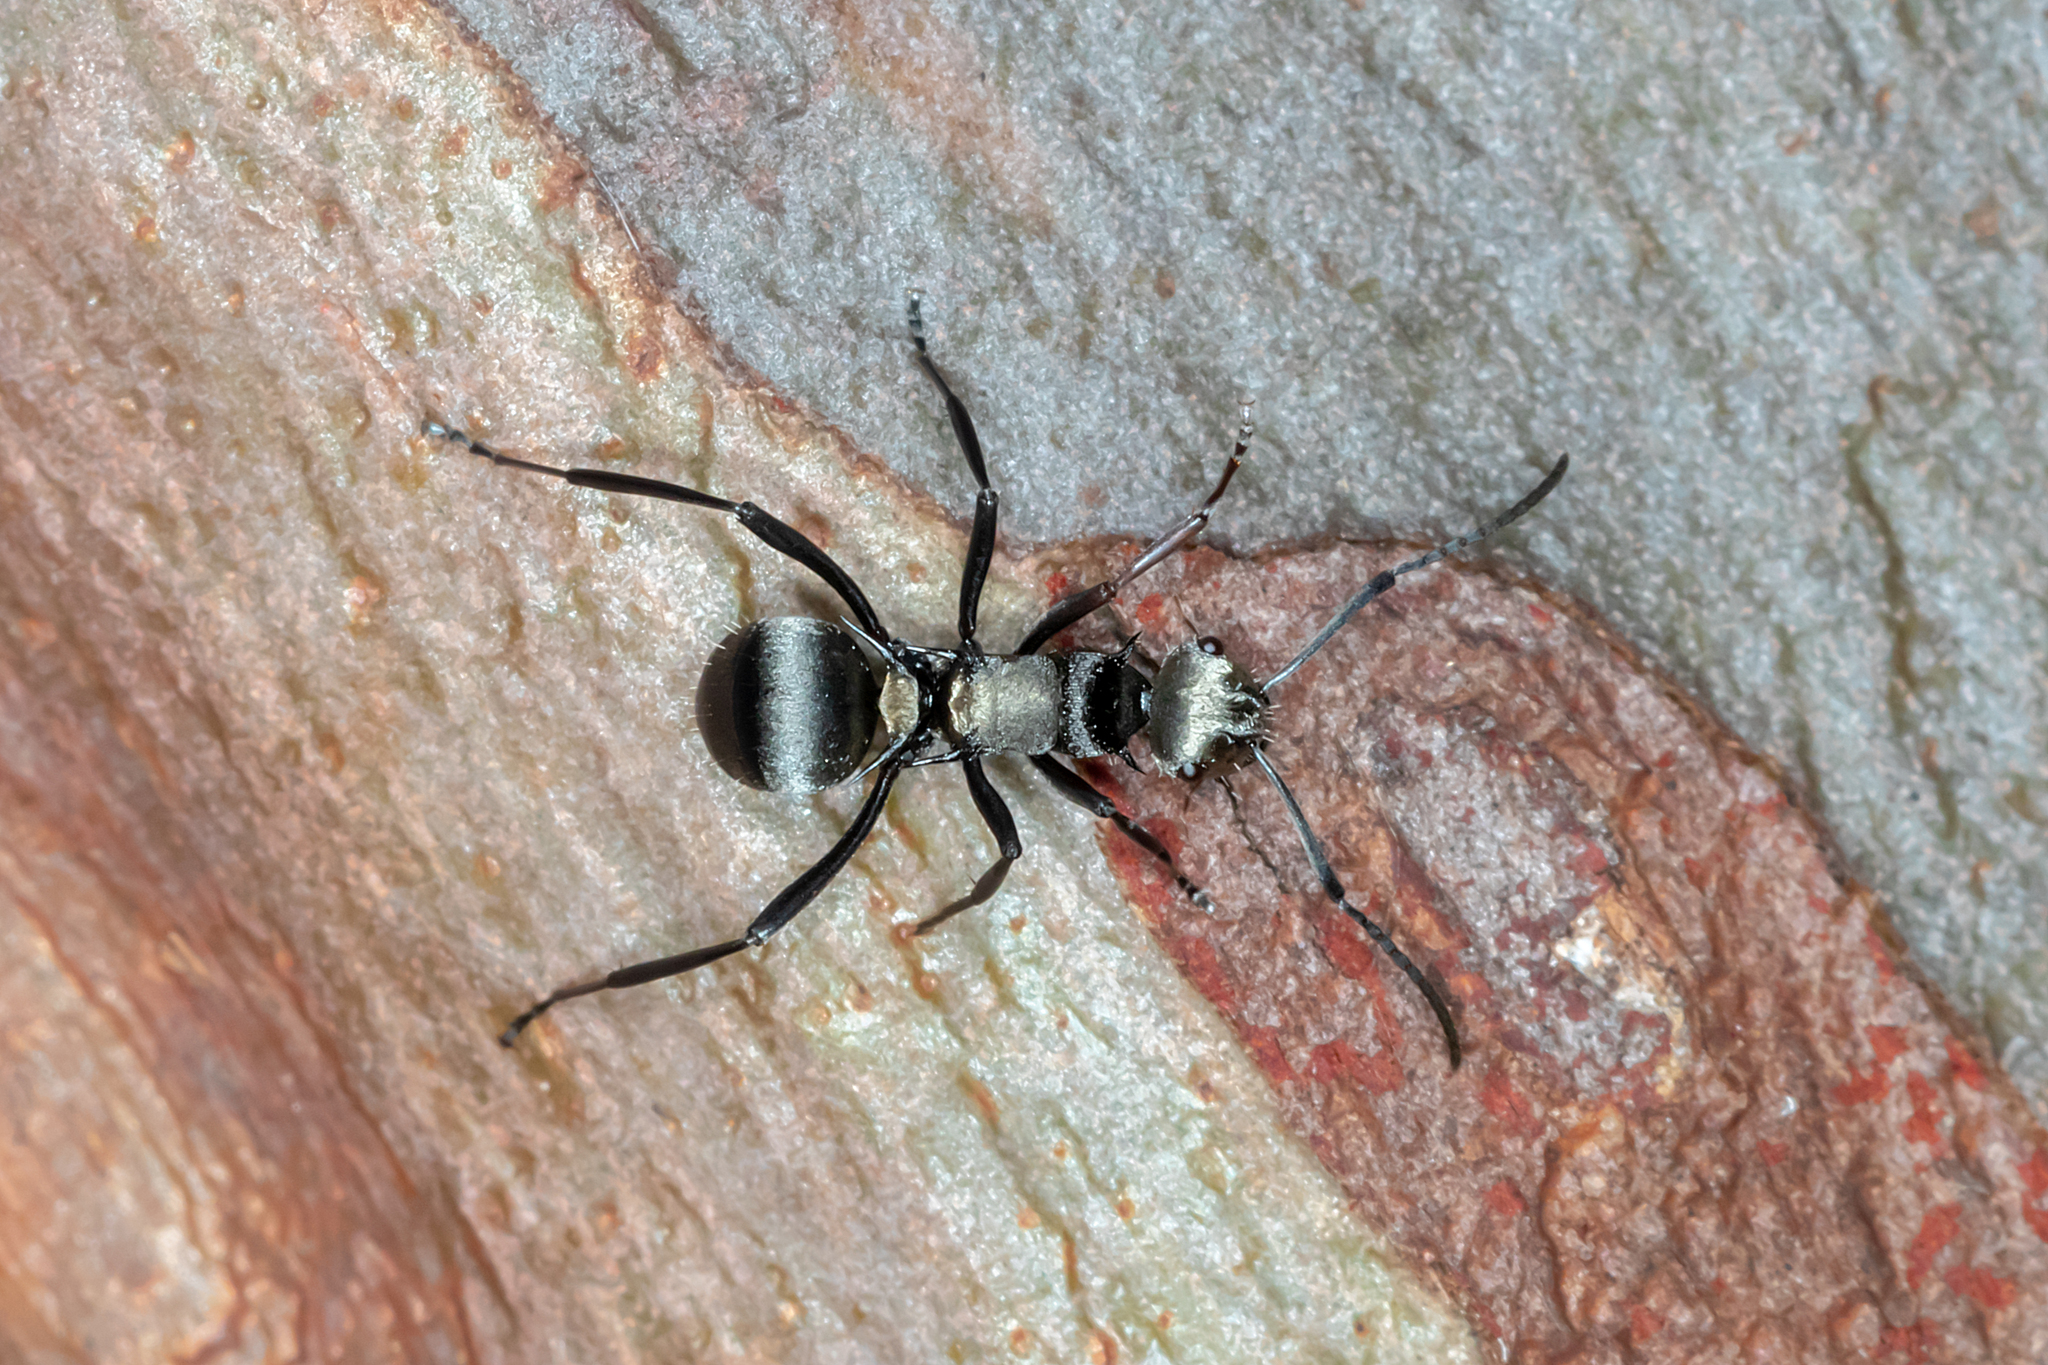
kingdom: Animalia
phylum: Arthropoda
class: Insecta
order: Hymenoptera
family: Formicidae
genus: Polyrhachis
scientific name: Polyrhachis daemeli
